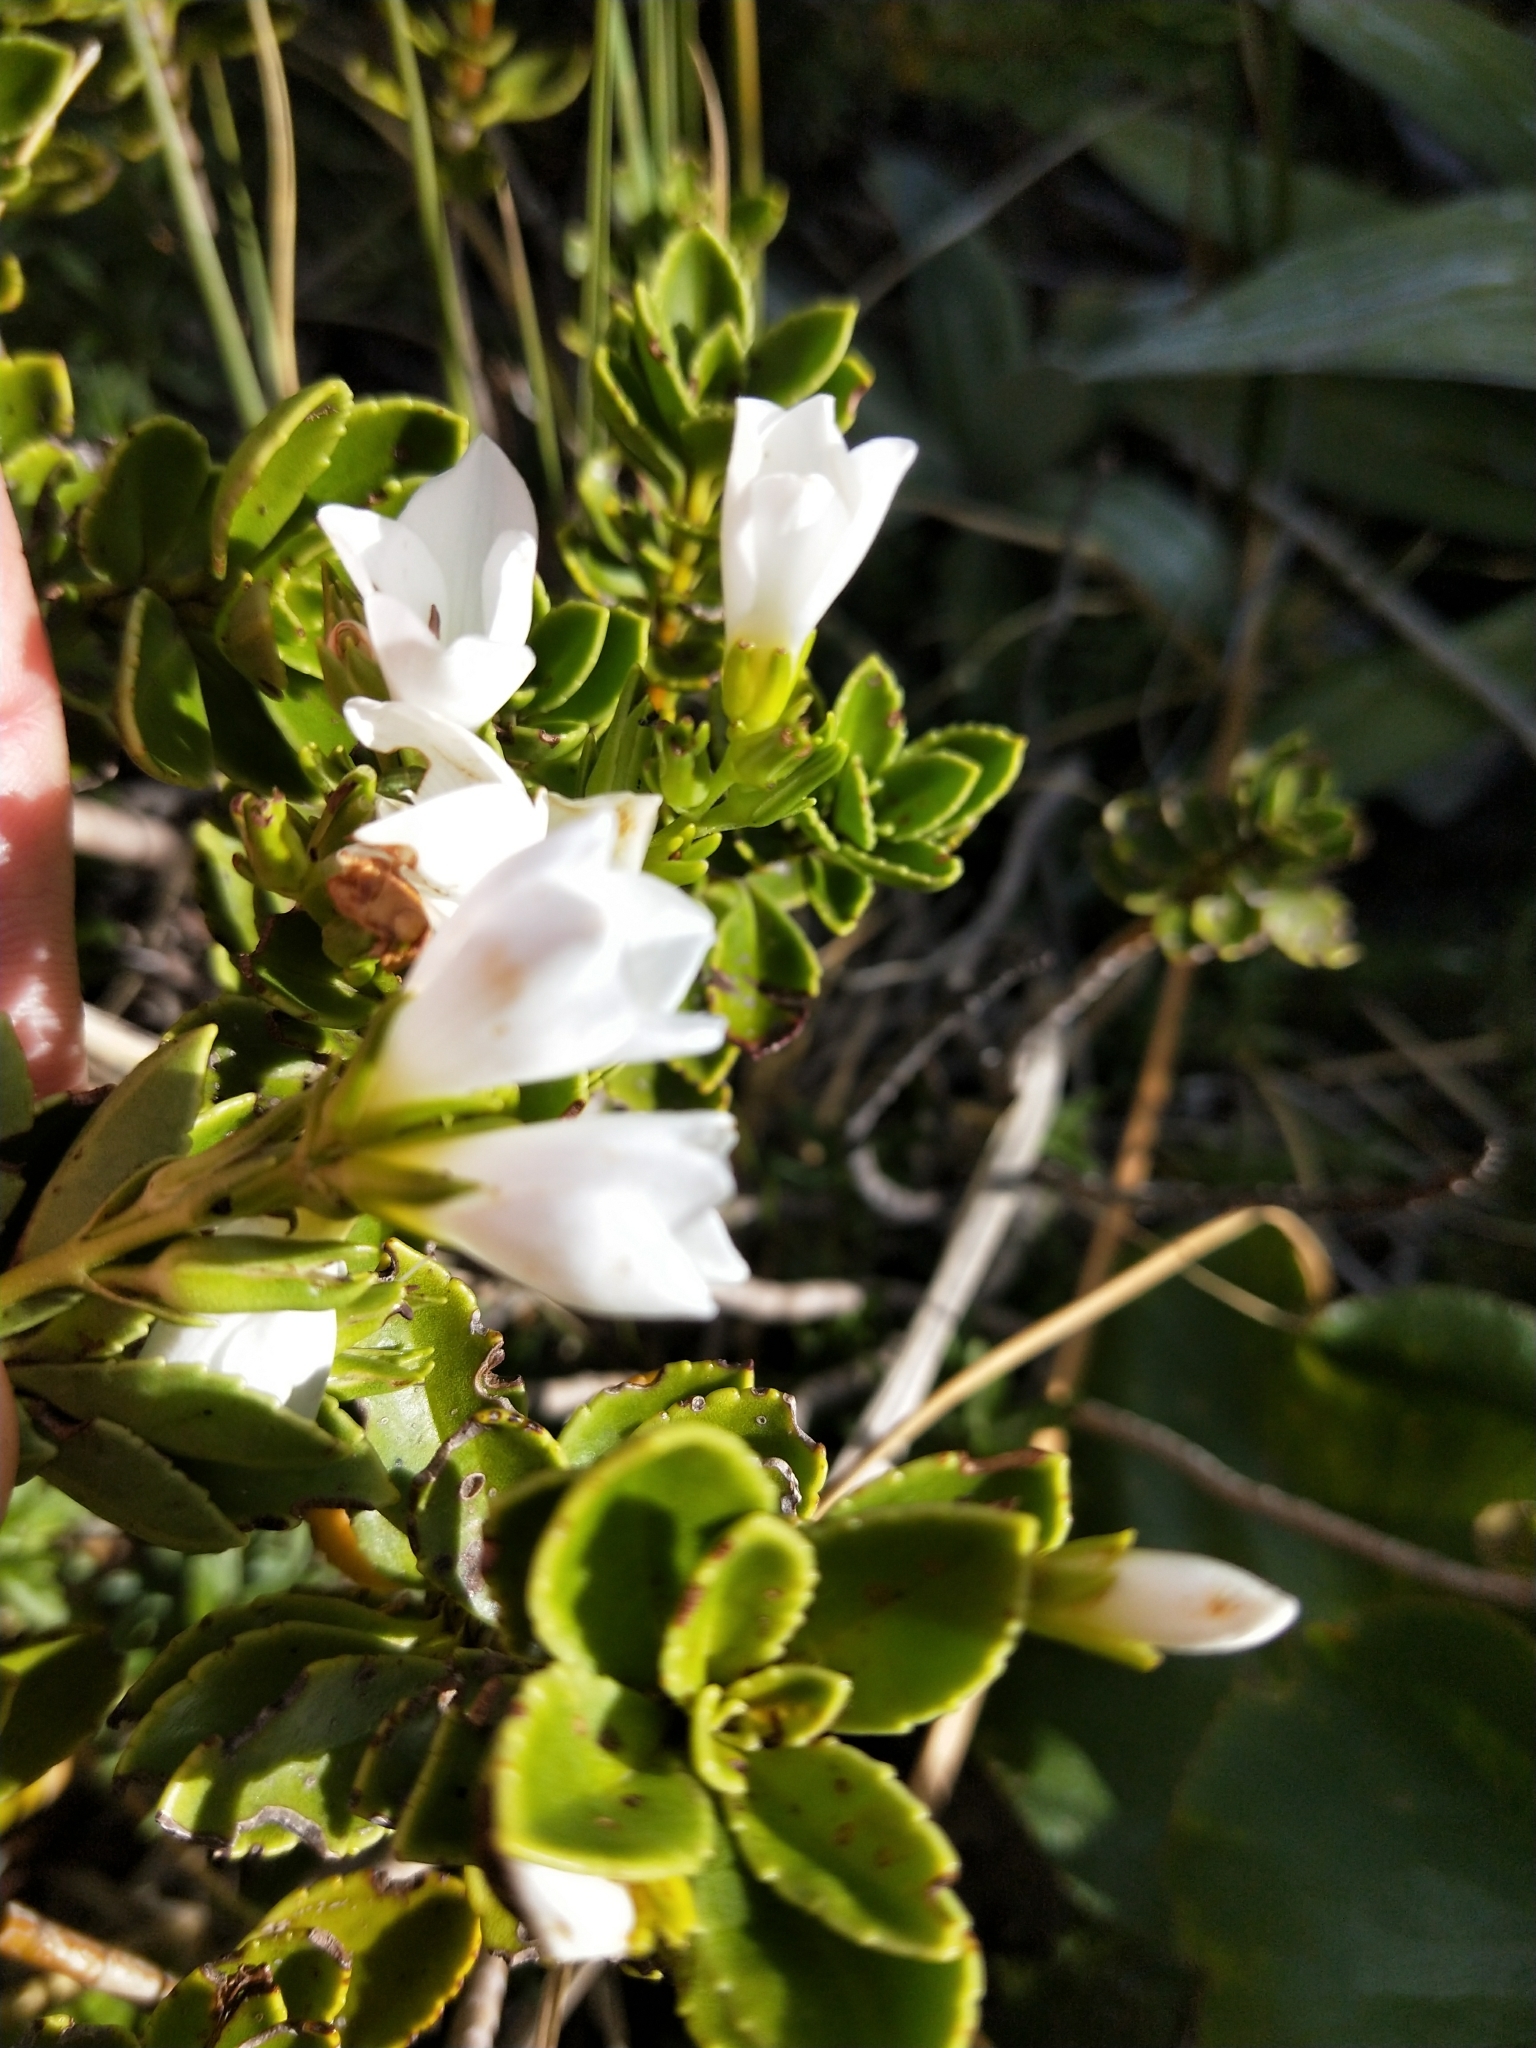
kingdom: Plantae
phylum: Tracheophyta
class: Magnoliopsida
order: Lamiales
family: Plantaginaceae
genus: Veronica
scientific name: Veronica macrantha
